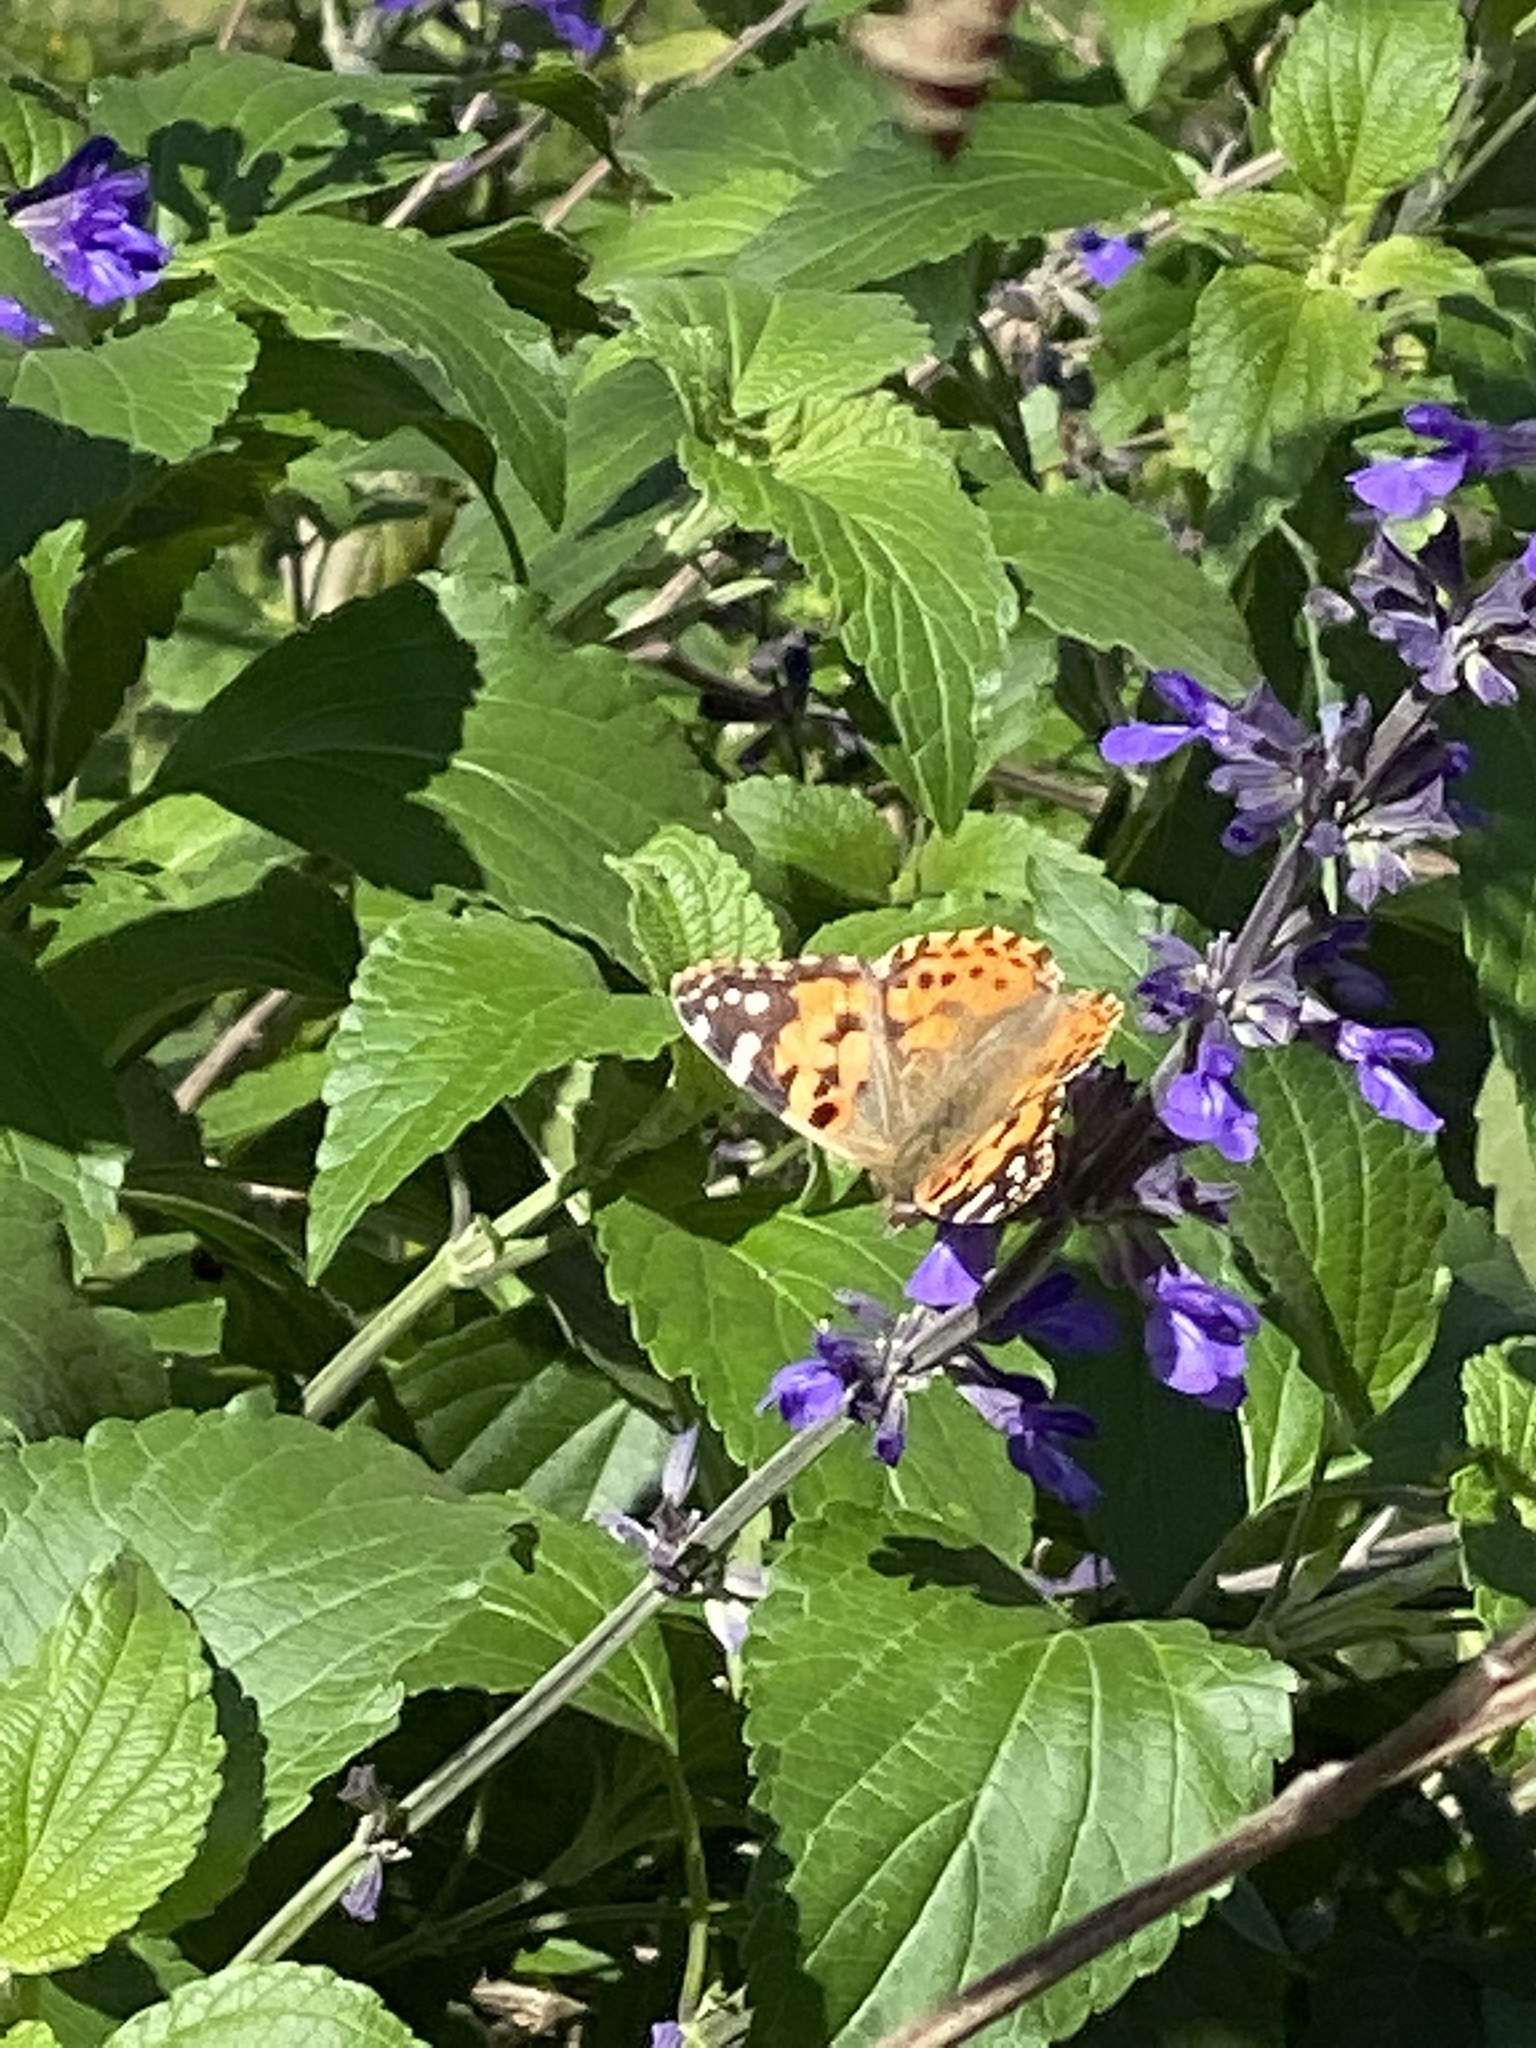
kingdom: Animalia
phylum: Arthropoda
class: Insecta
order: Lepidoptera
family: Nymphalidae
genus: Vanessa
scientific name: Vanessa cardui
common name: Painted lady
